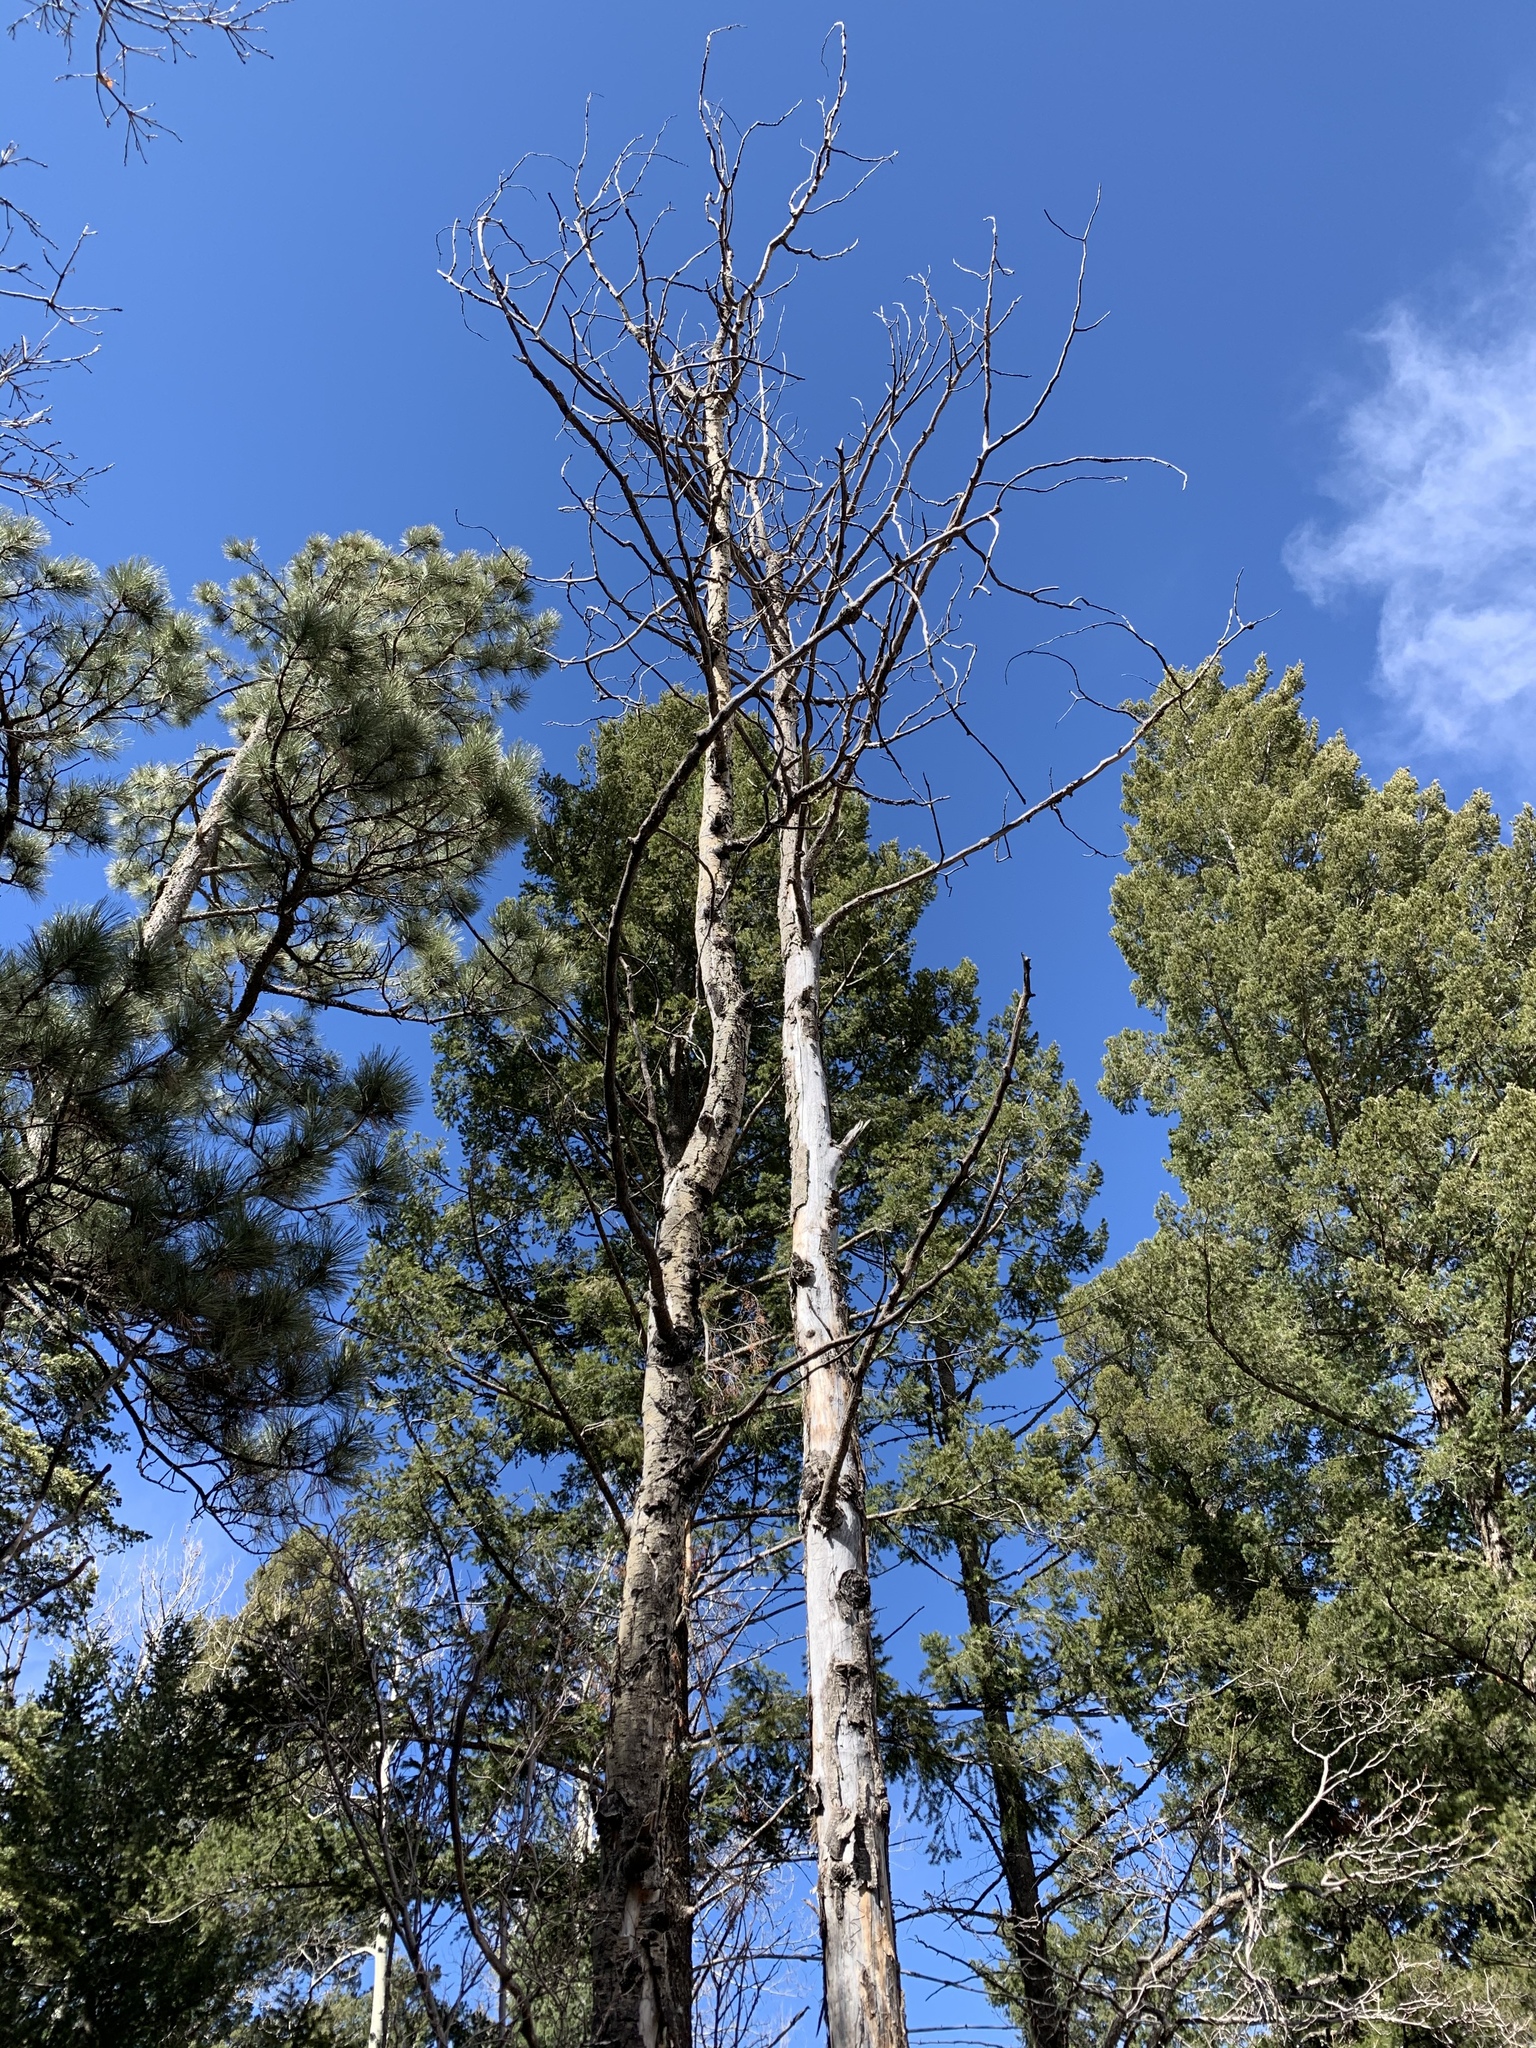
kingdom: Plantae
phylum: Tracheophyta
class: Magnoliopsida
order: Malpighiales
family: Salicaceae
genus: Populus
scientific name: Populus tremuloides
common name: Quaking aspen
